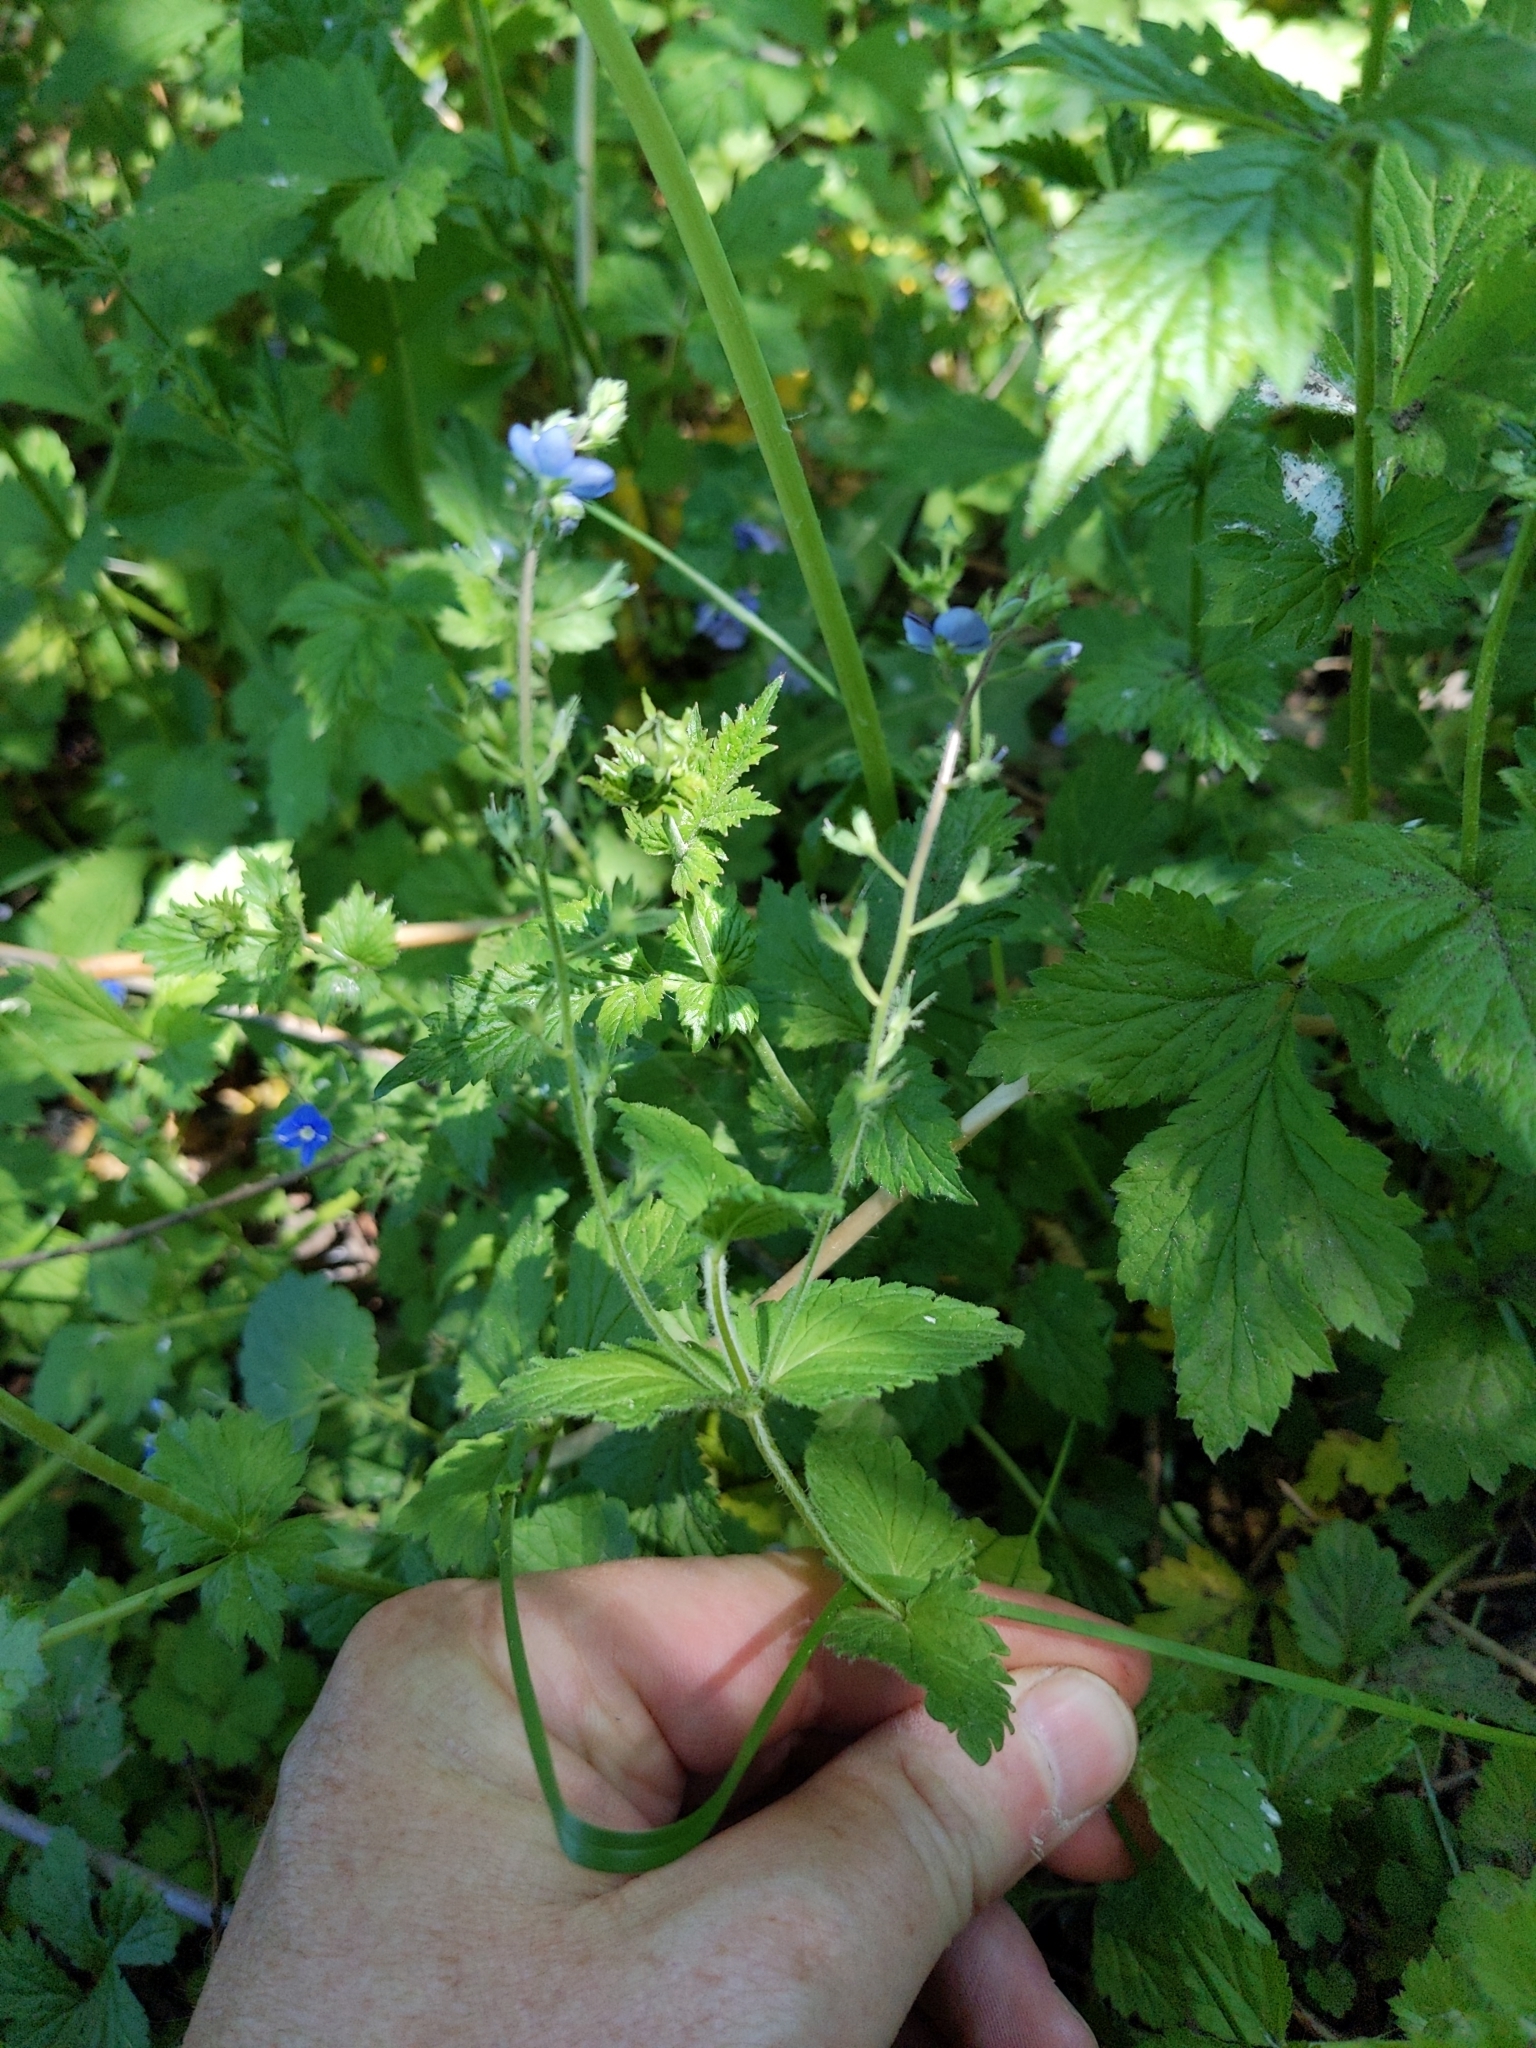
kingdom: Plantae
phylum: Tracheophyta
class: Magnoliopsida
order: Lamiales
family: Plantaginaceae
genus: Veronica
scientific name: Veronica chamaedrys
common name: Germander speedwell
